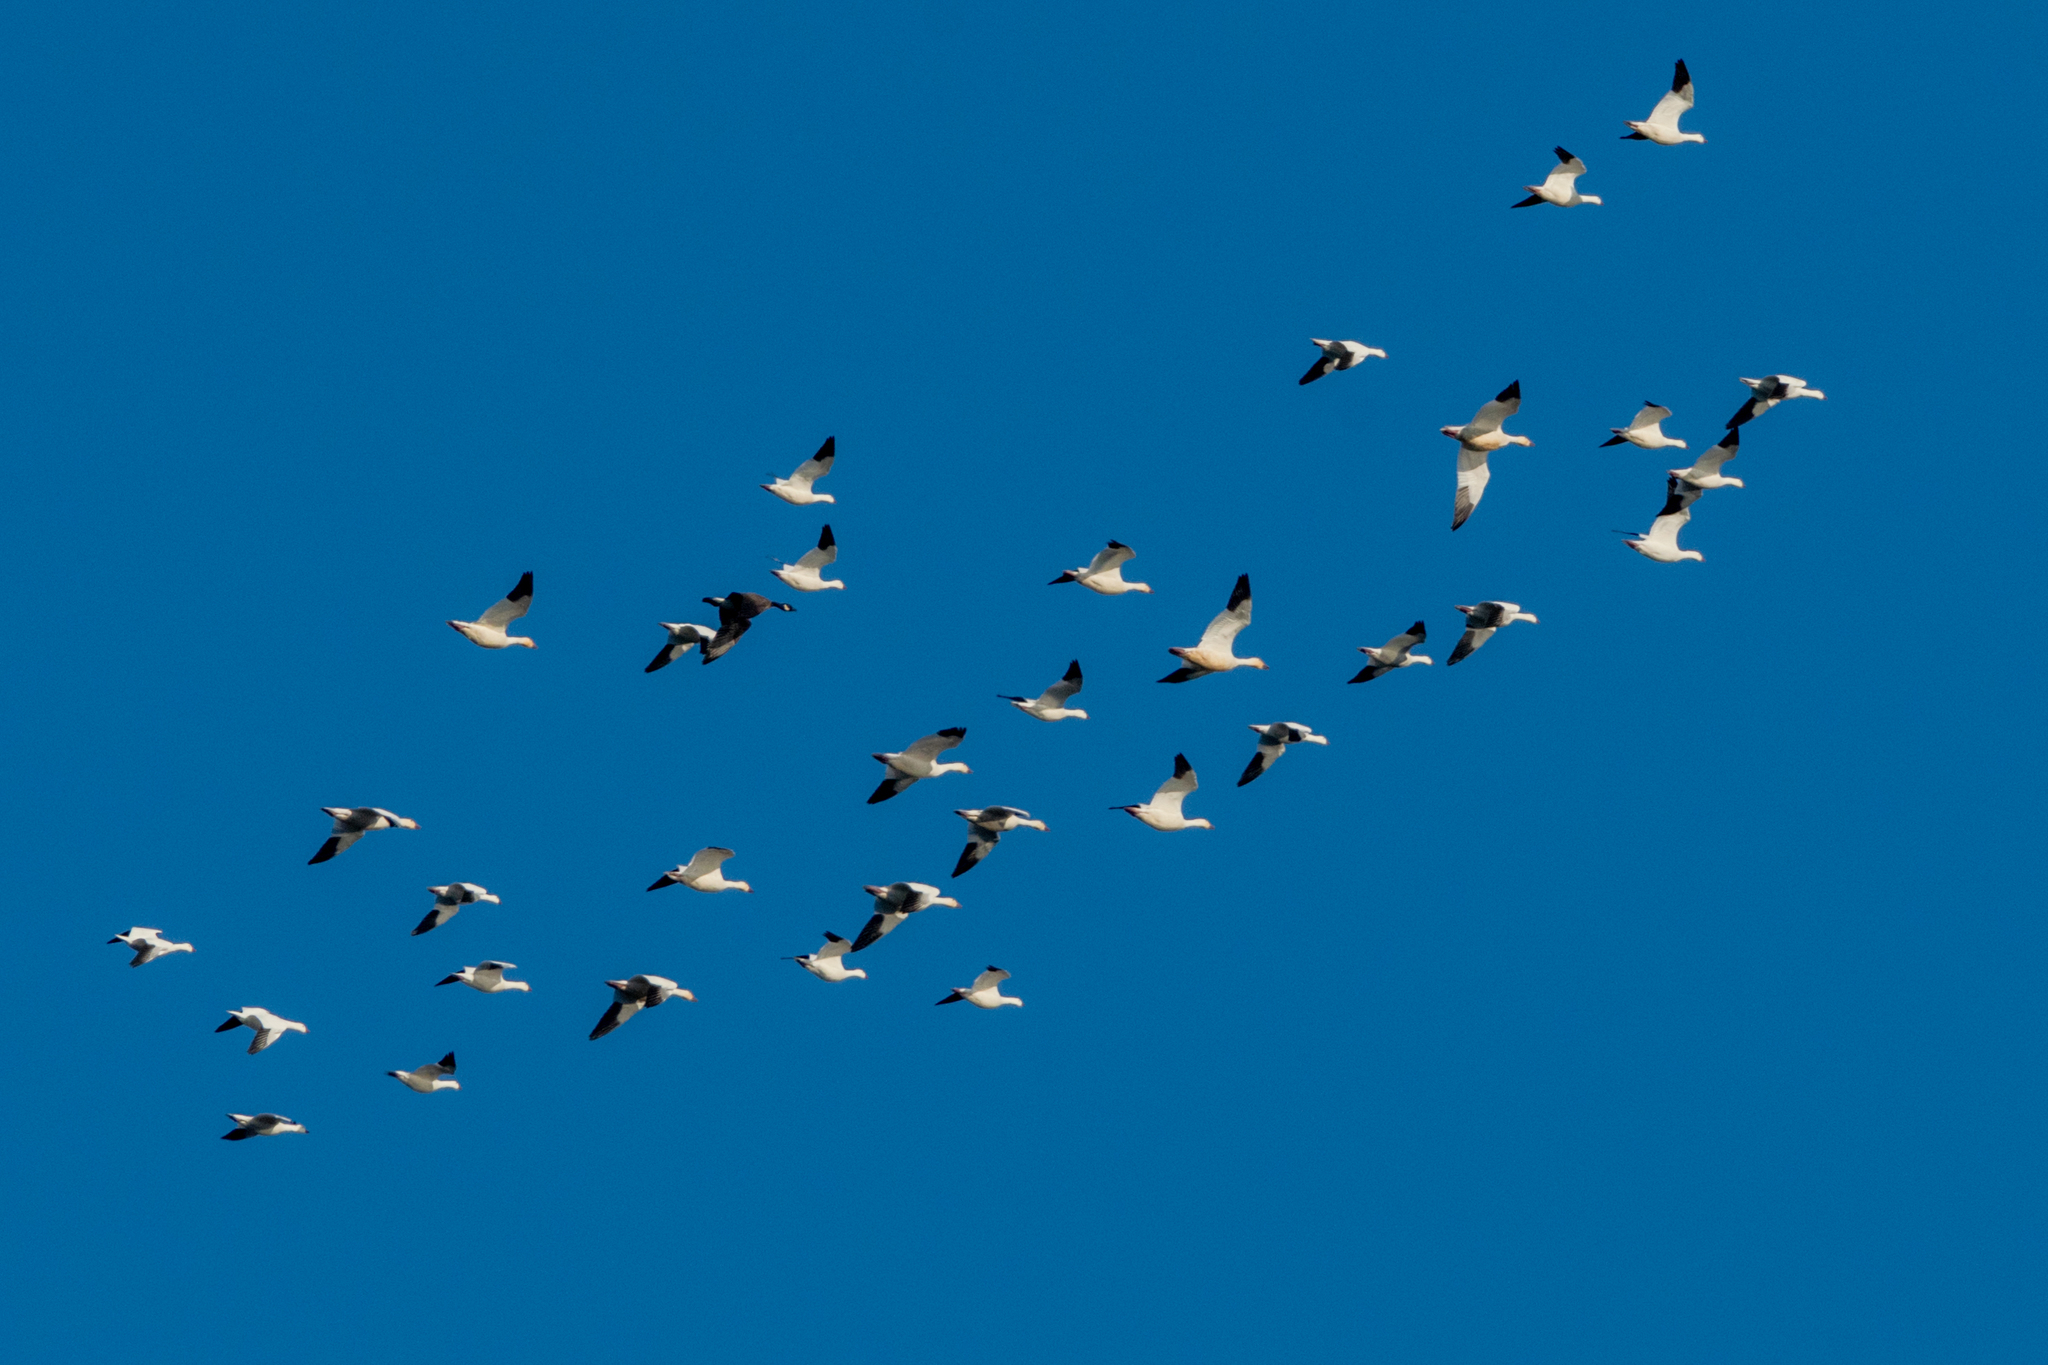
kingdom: Animalia
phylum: Chordata
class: Aves
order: Anseriformes
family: Anatidae
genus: Anser
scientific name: Anser caerulescens
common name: Snow goose
